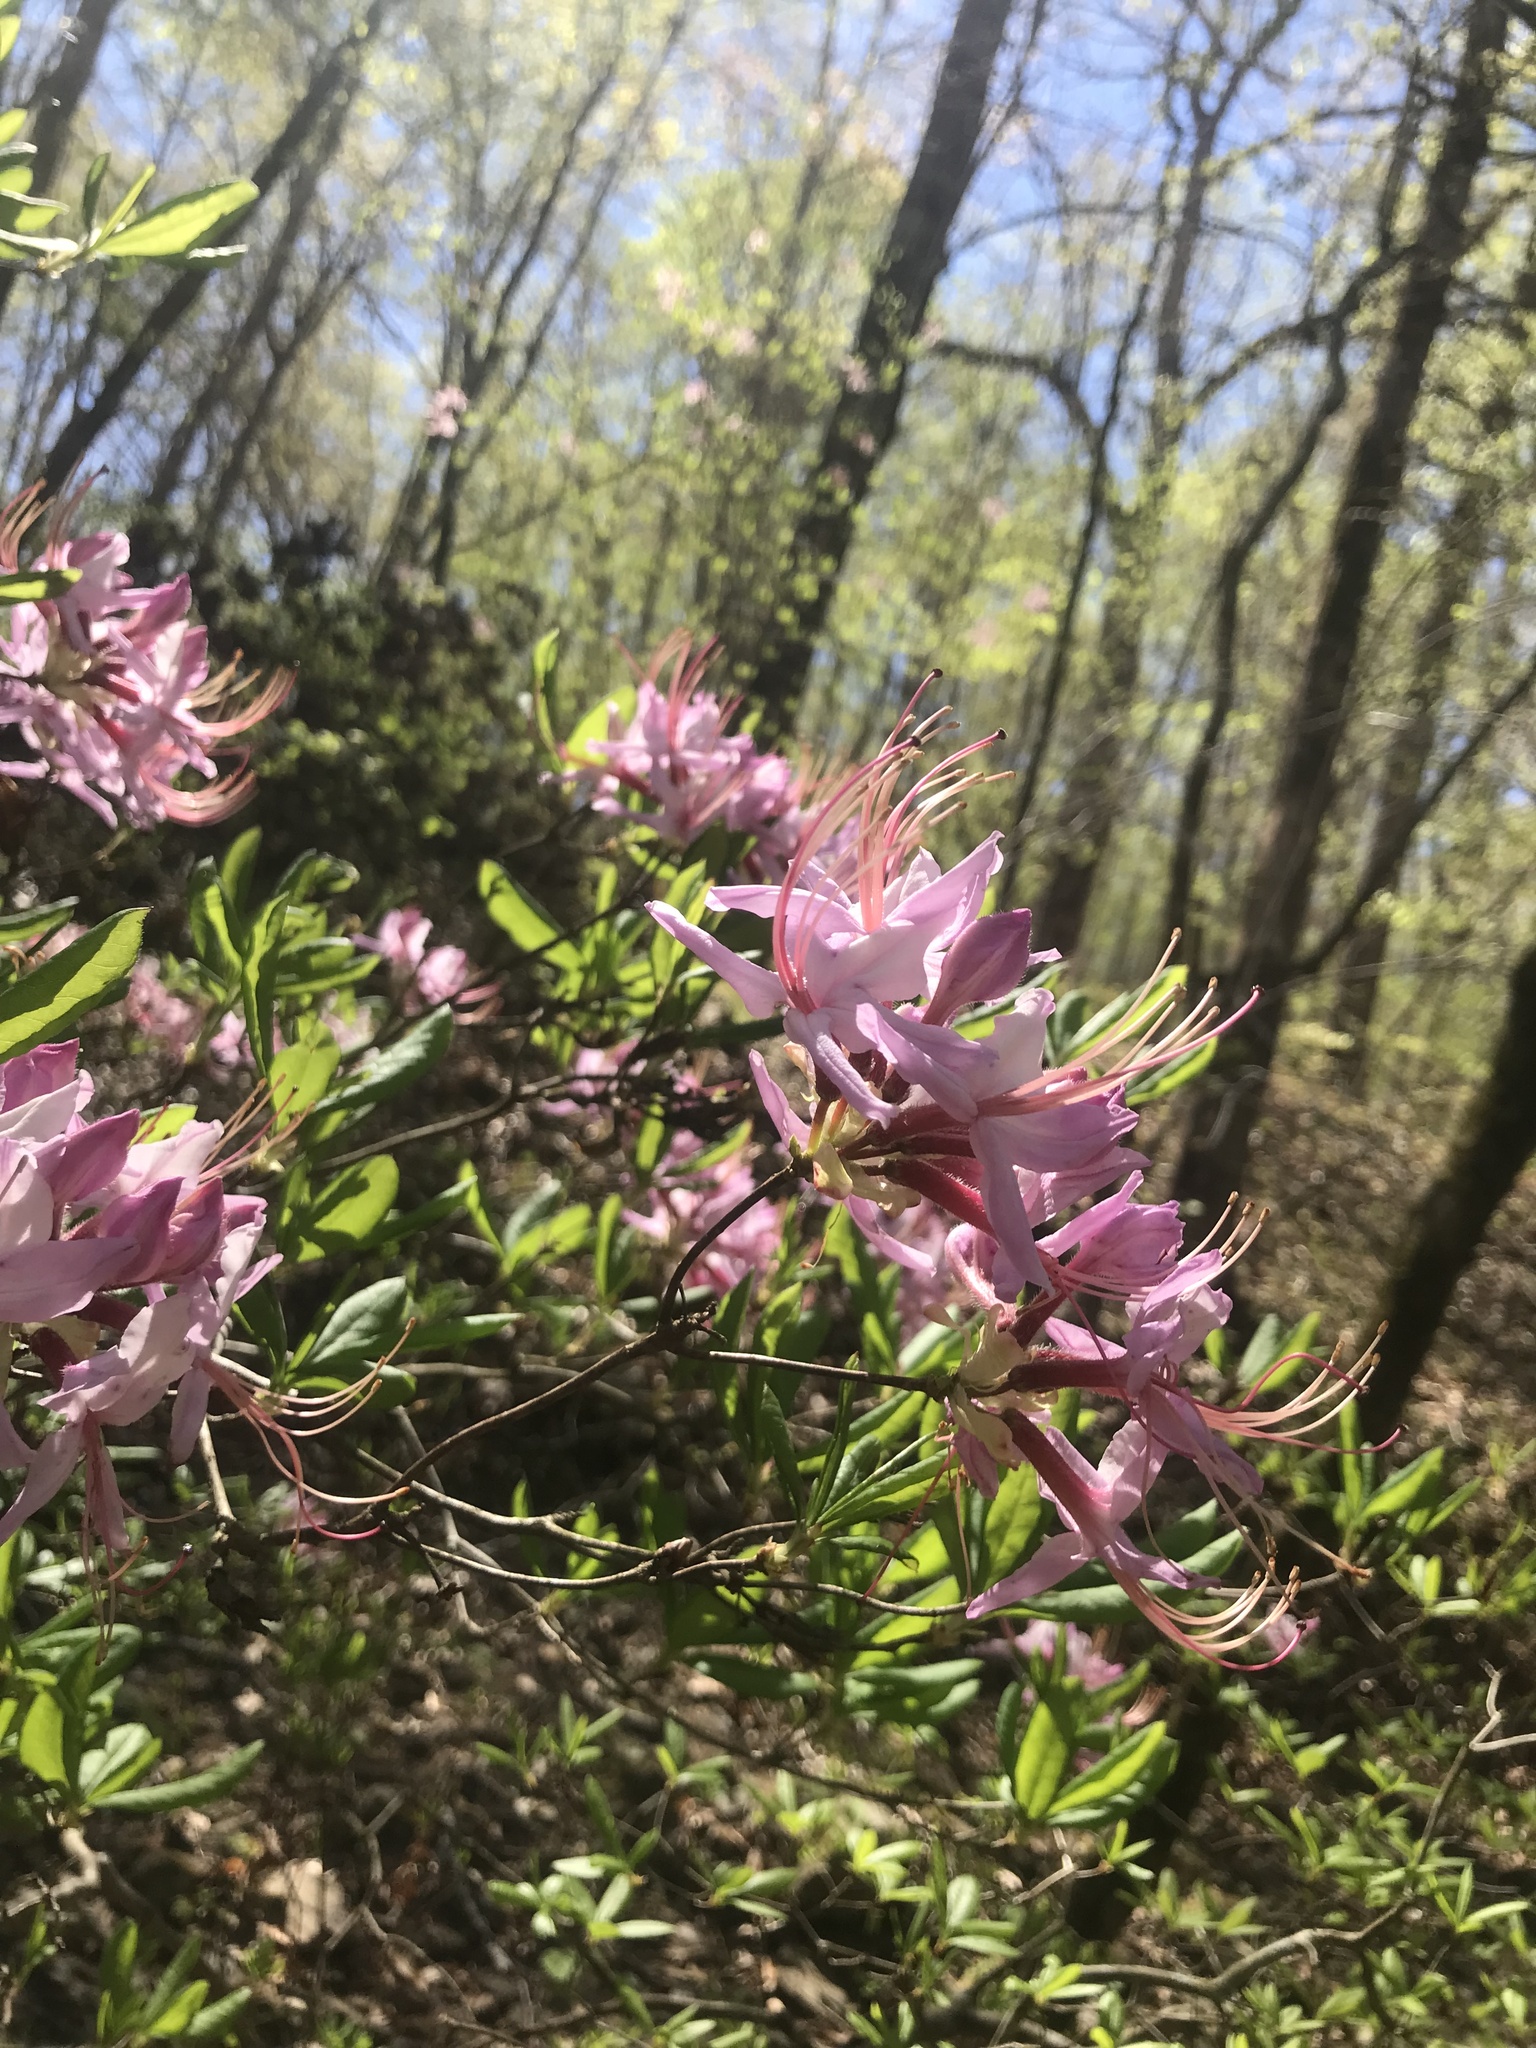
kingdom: Plantae
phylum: Tracheophyta
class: Magnoliopsida
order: Ericales
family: Ericaceae
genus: Rhododendron
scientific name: Rhododendron periclymenoides
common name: Election-pink
